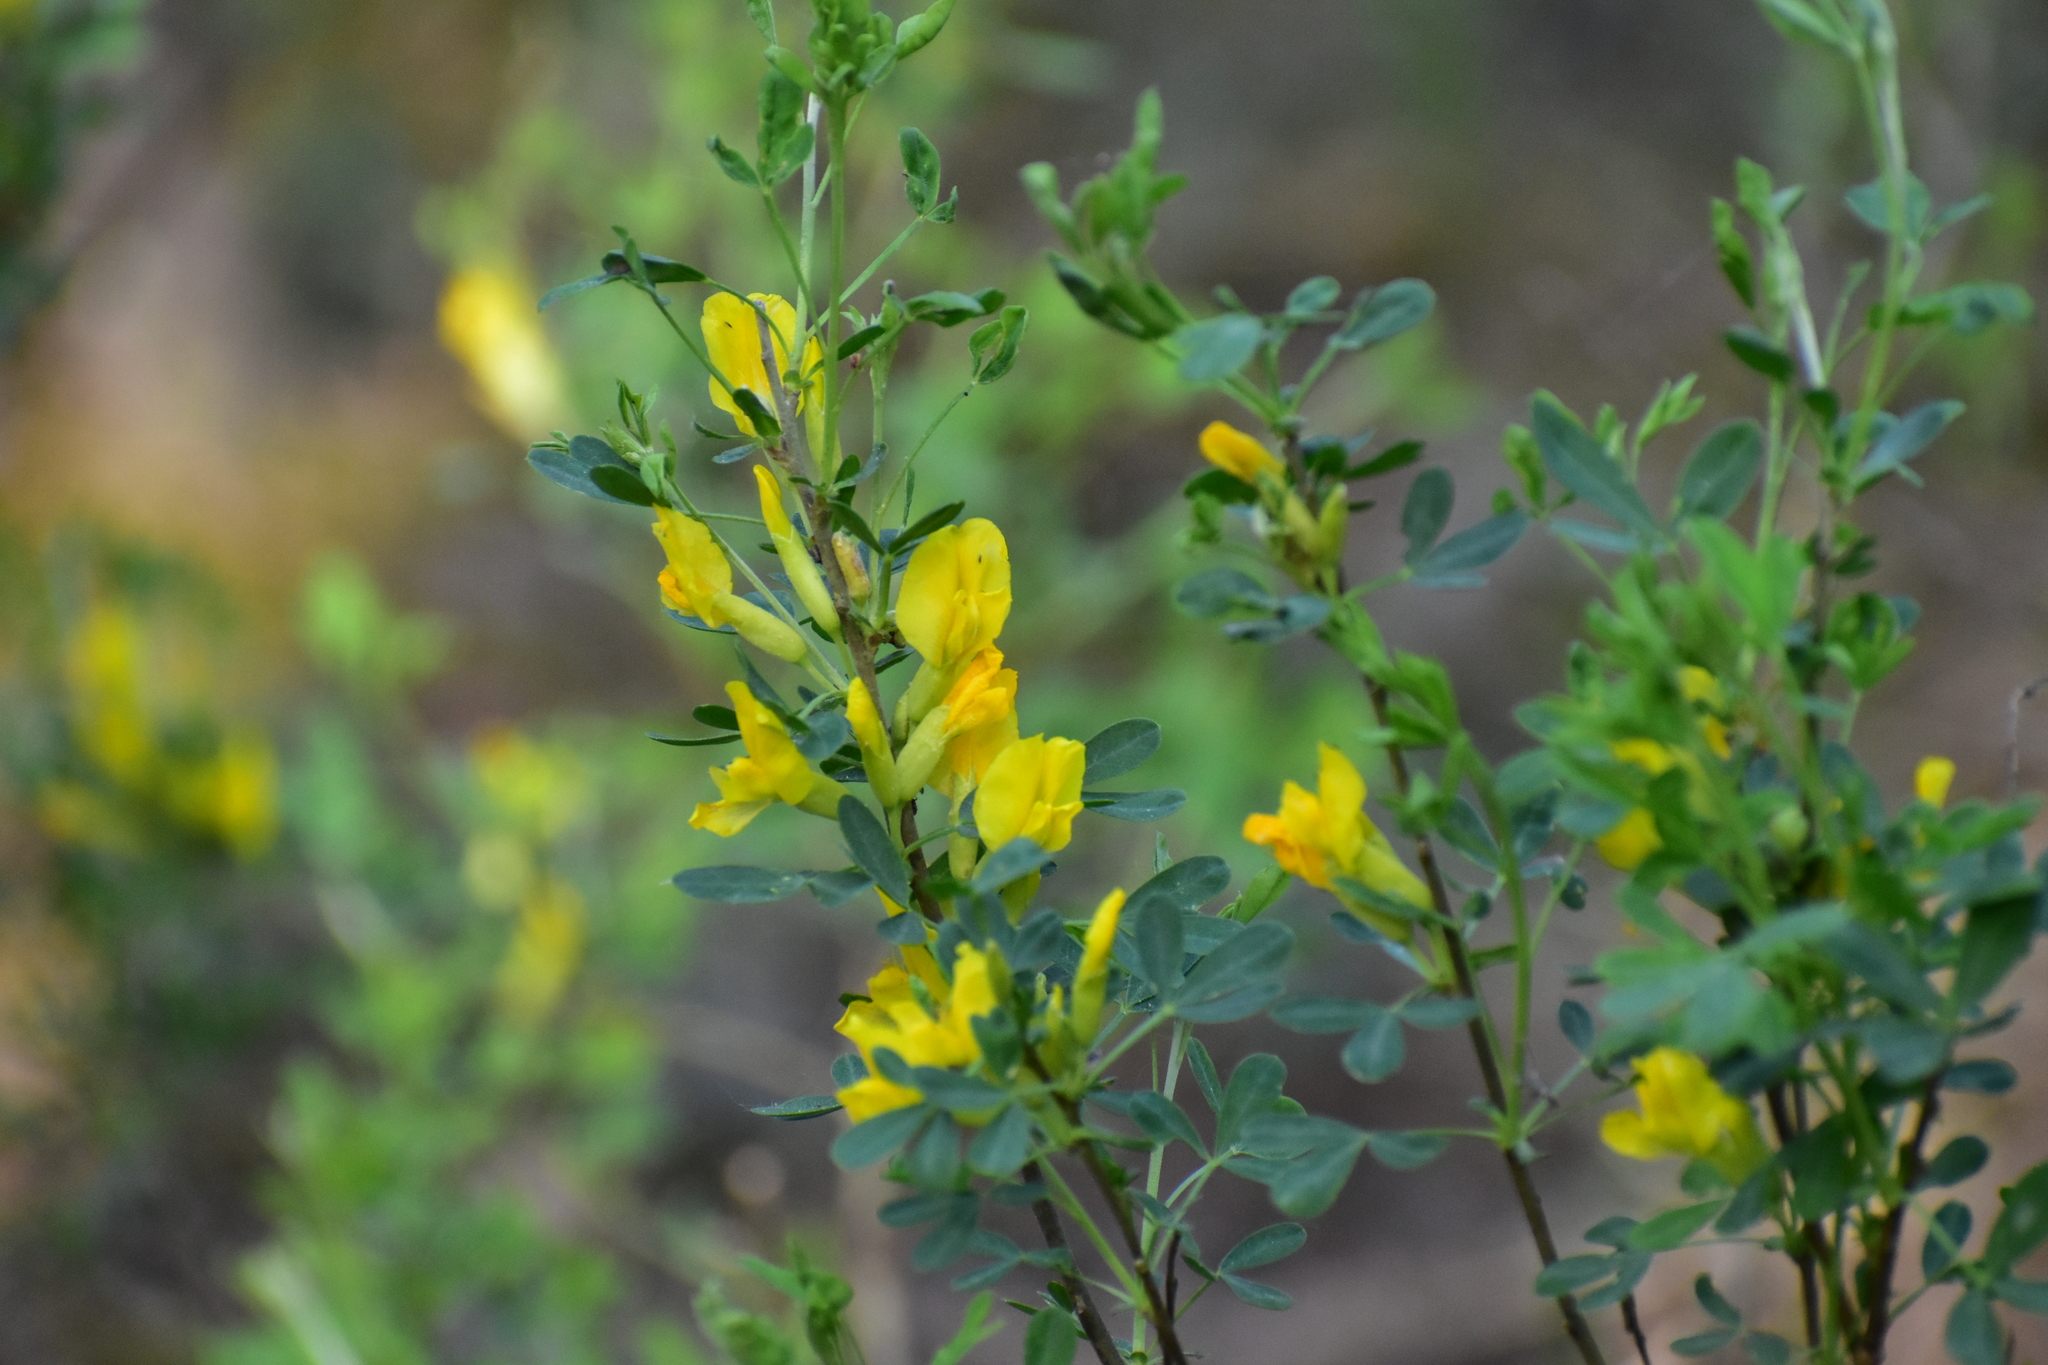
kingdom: Plantae
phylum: Tracheophyta
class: Magnoliopsida
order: Fabales
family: Fabaceae
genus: Chamaecytisus
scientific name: Chamaecytisus ruthenicus
